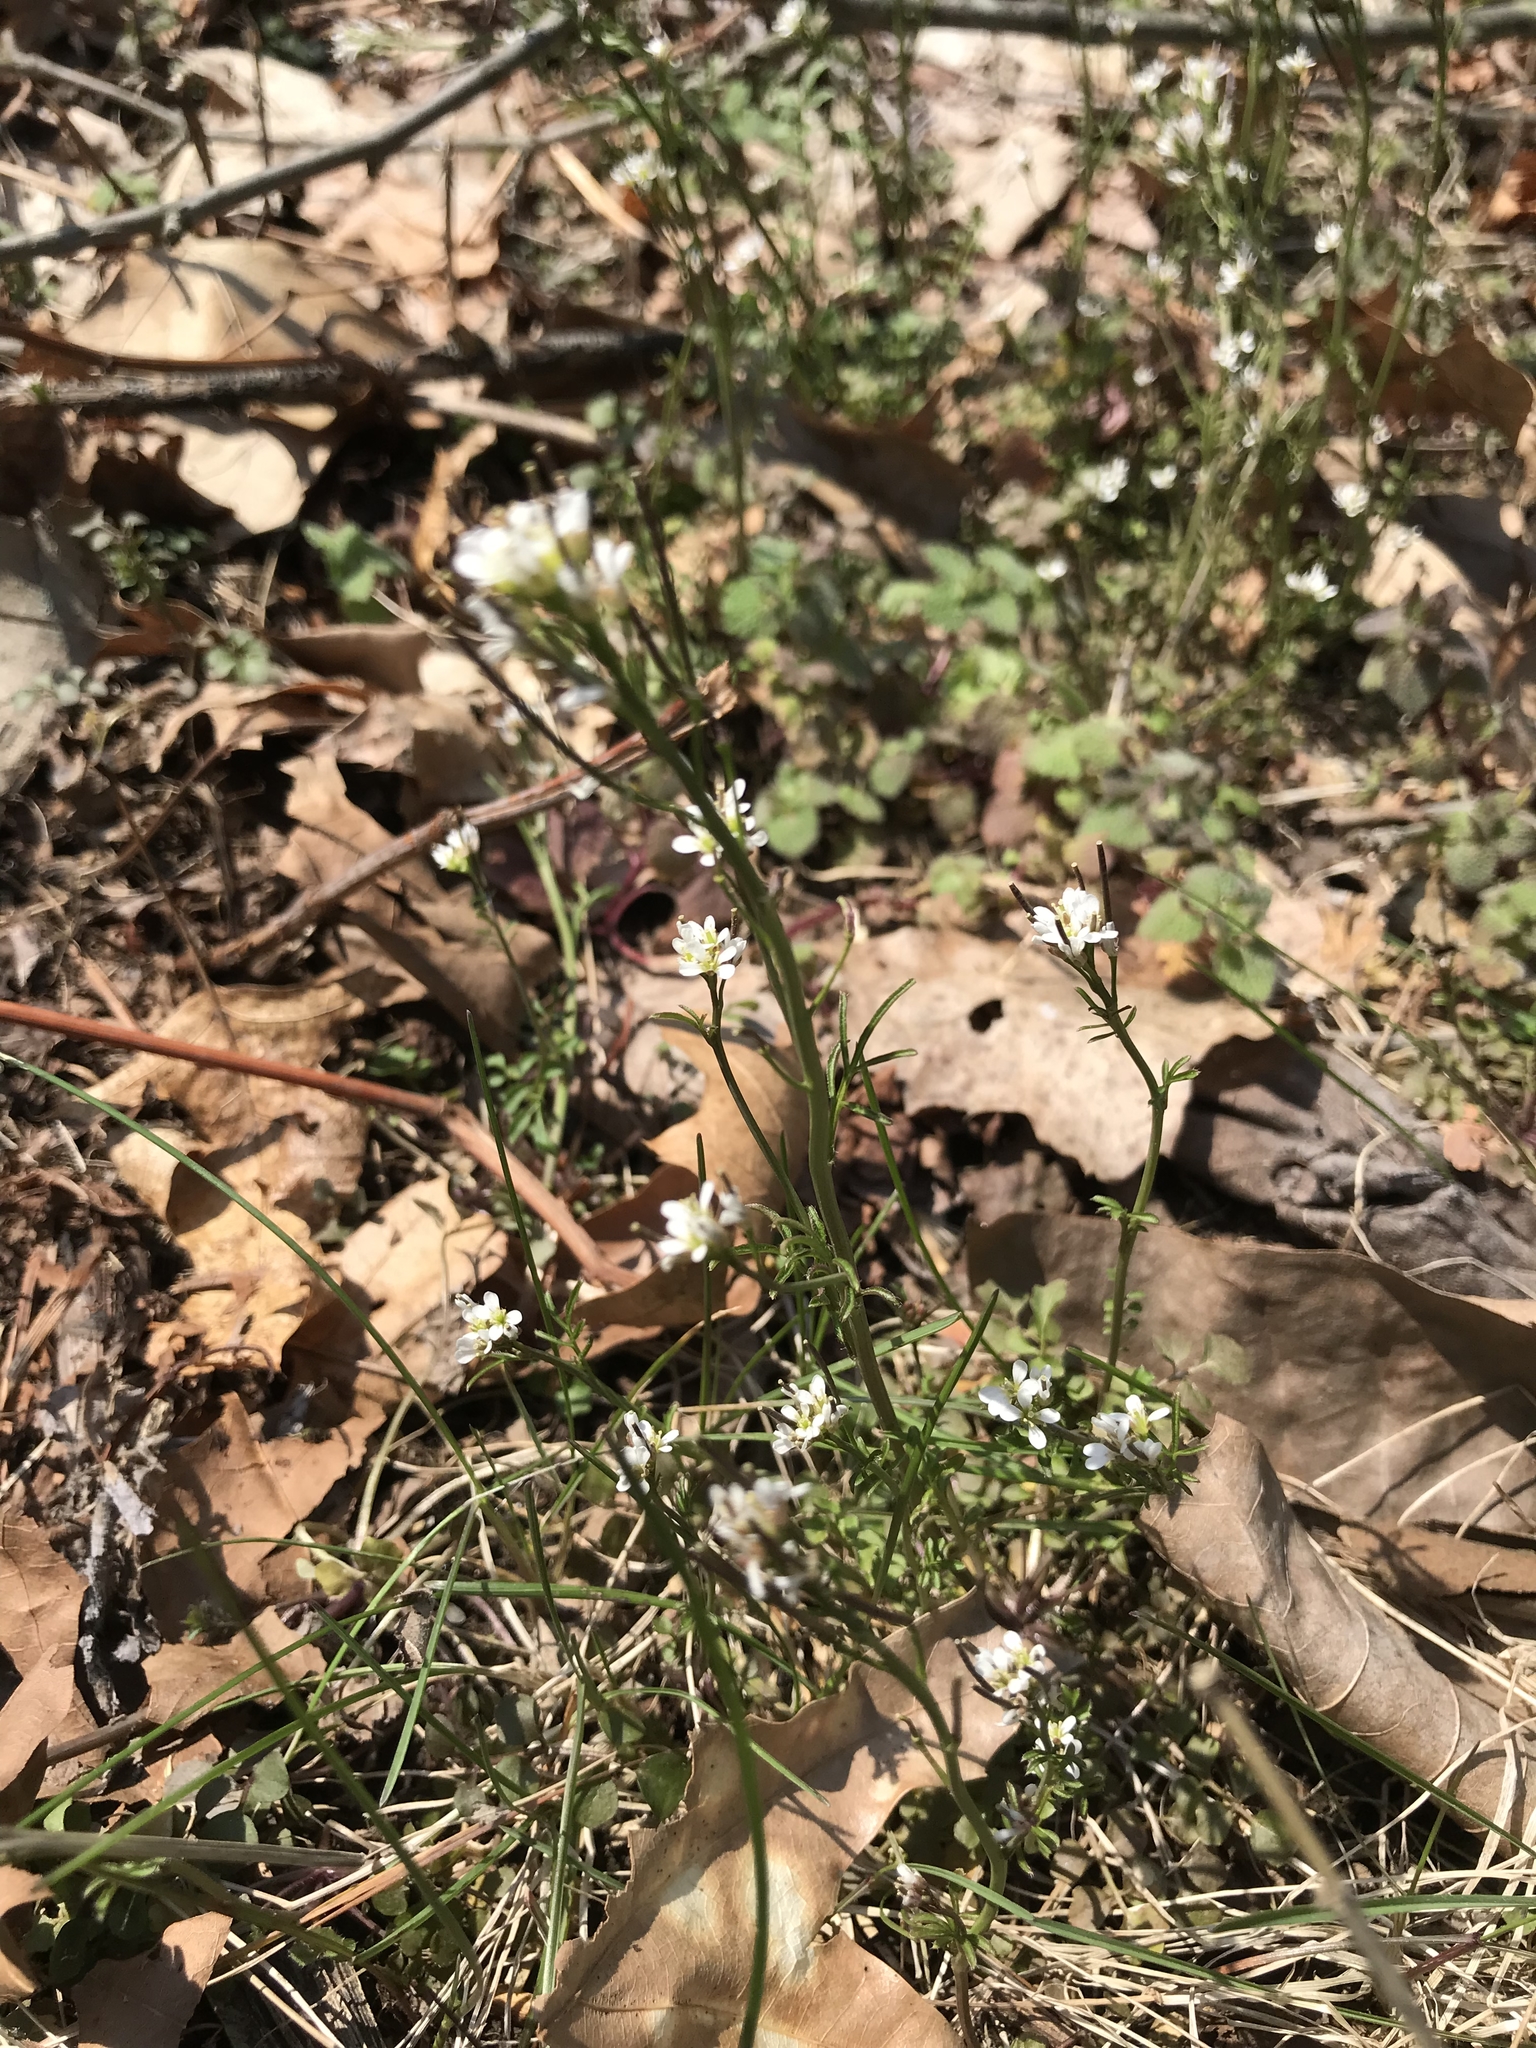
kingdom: Plantae
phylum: Tracheophyta
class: Magnoliopsida
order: Brassicales
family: Brassicaceae
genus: Cardamine
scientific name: Cardamine hirsuta
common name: Hairy bittercress
